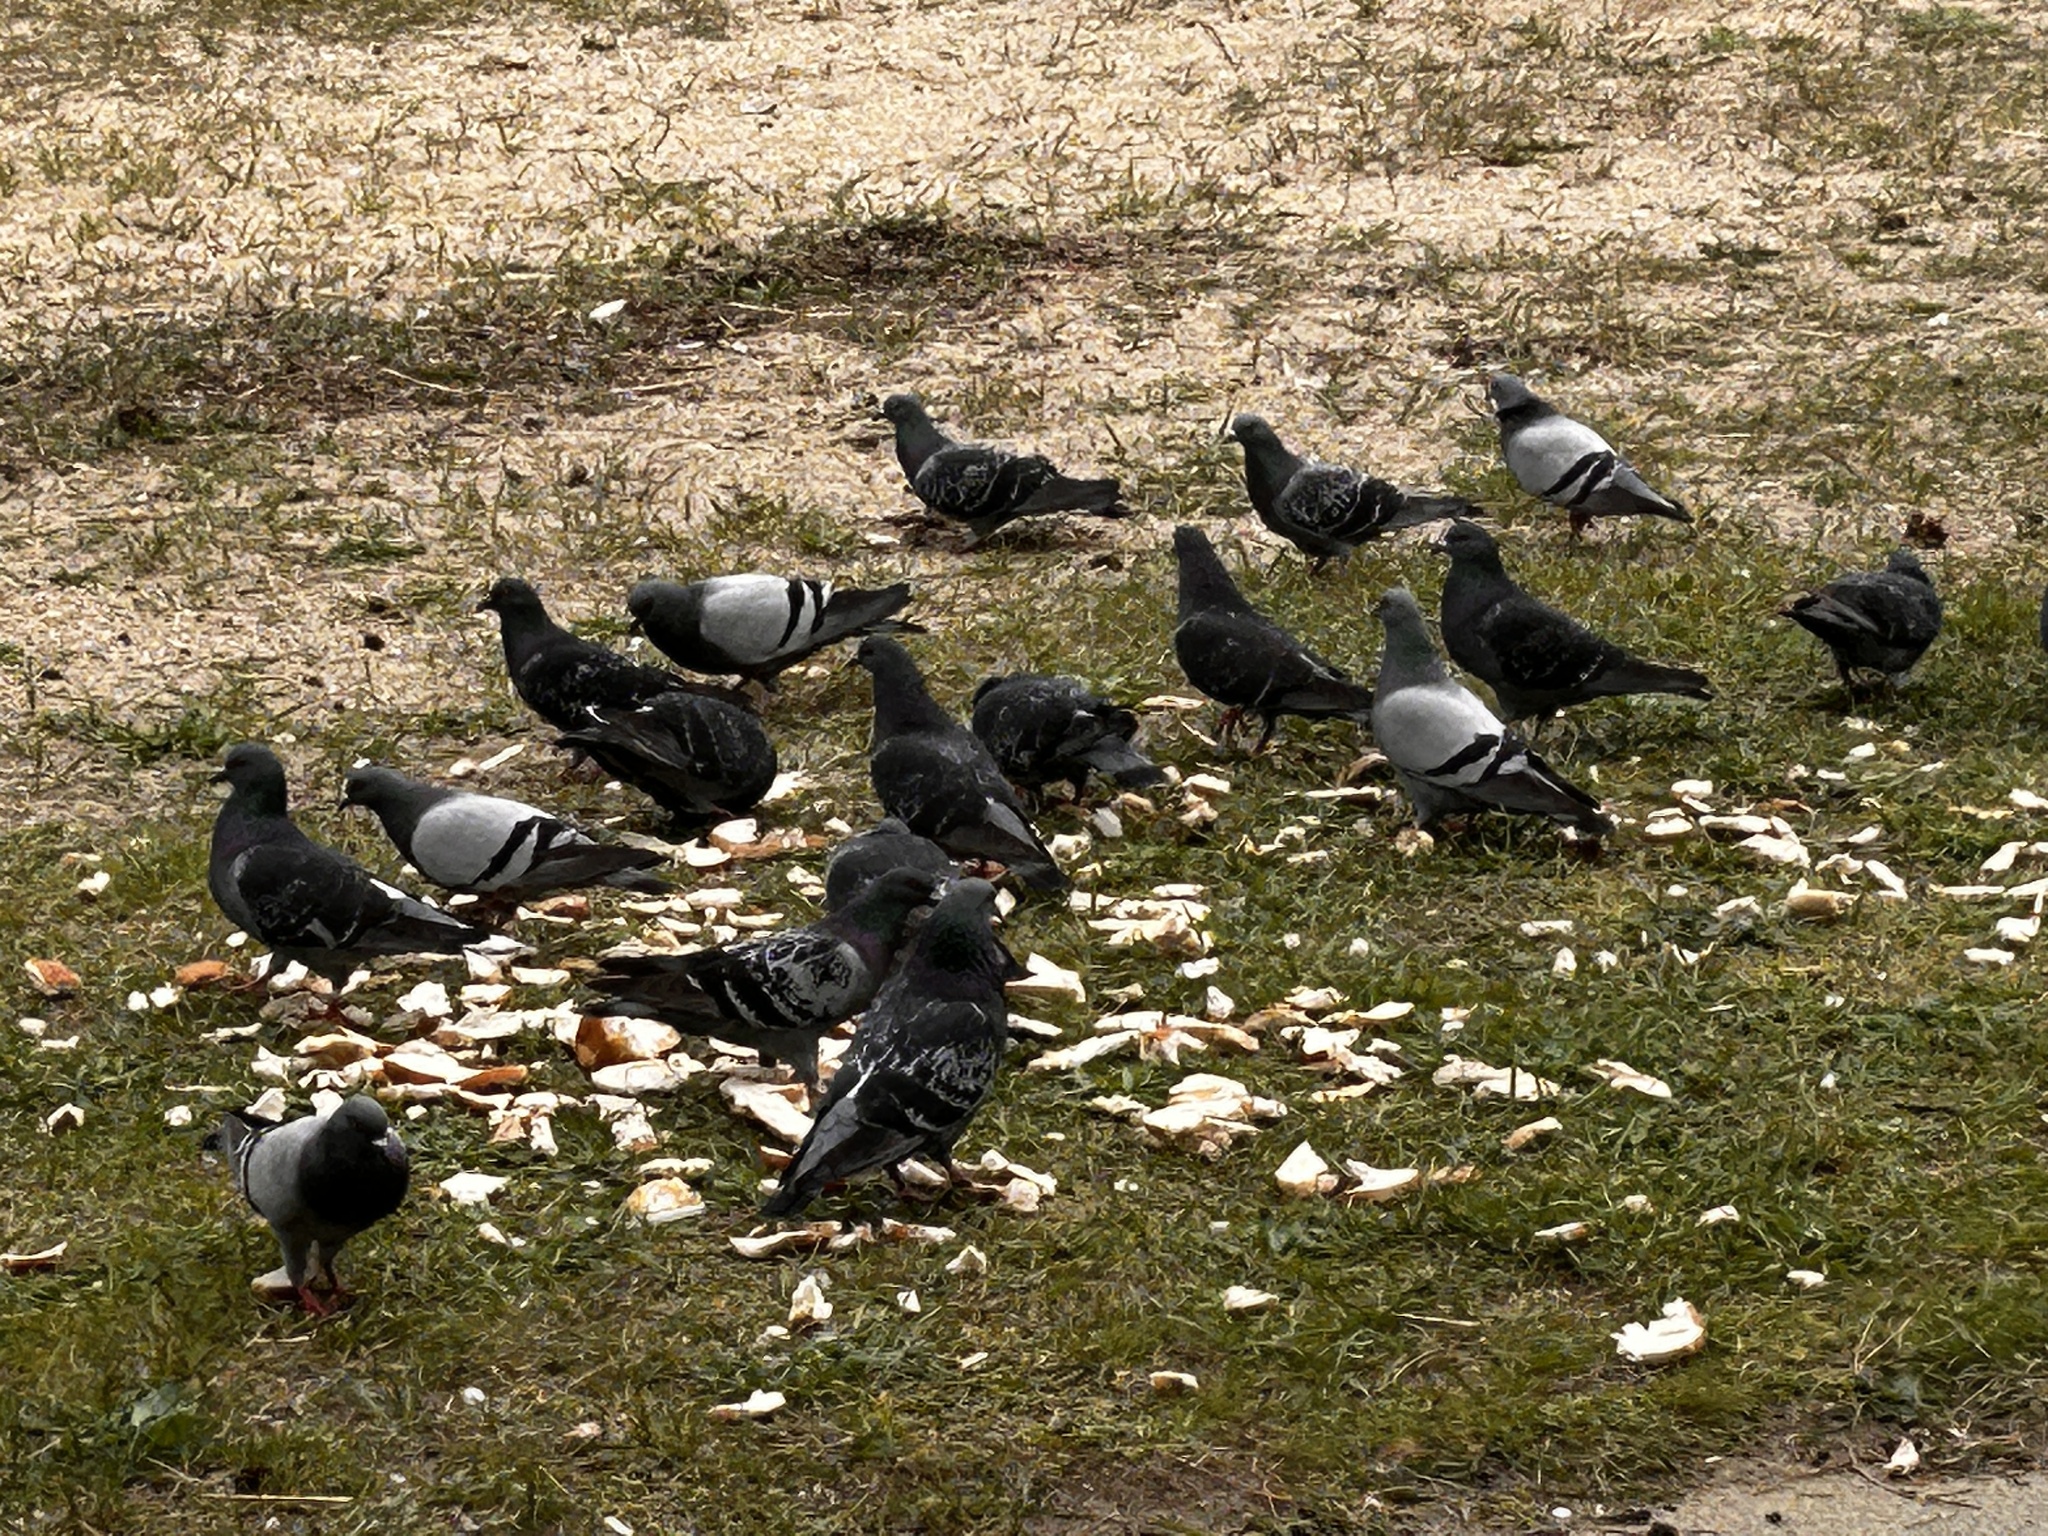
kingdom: Animalia
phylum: Chordata
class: Aves
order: Columbiformes
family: Columbidae
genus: Columba
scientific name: Columba livia
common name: Rock pigeon
